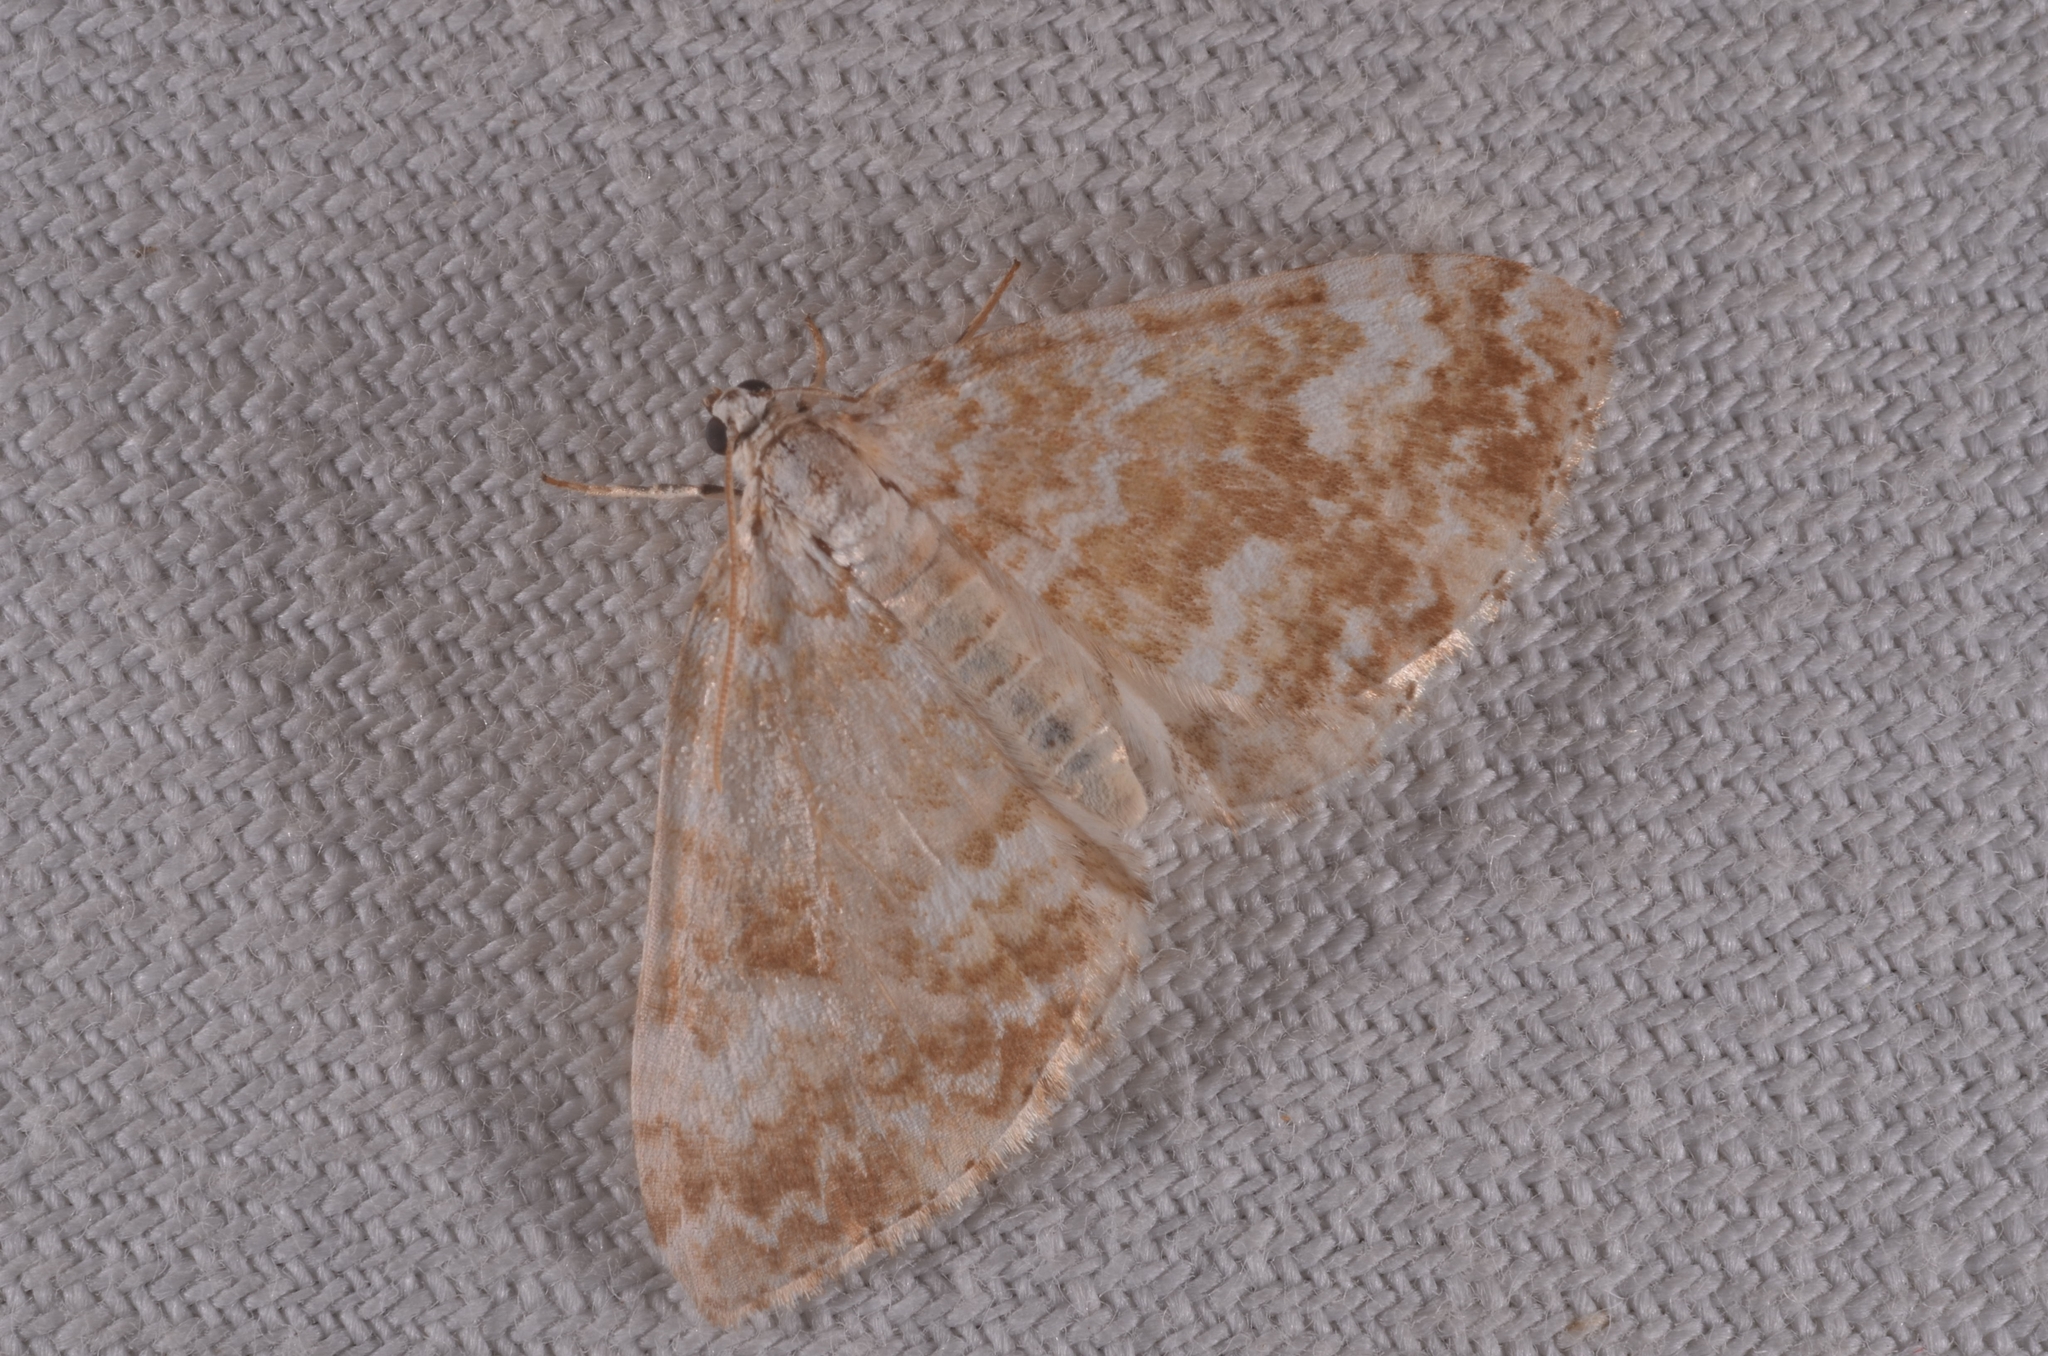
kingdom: Animalia
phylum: Arthropoda
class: Insecta
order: Lepidoptera
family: Geometridae
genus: Perizoma
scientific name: Perizoma flavofasciata
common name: Sandy carpet
